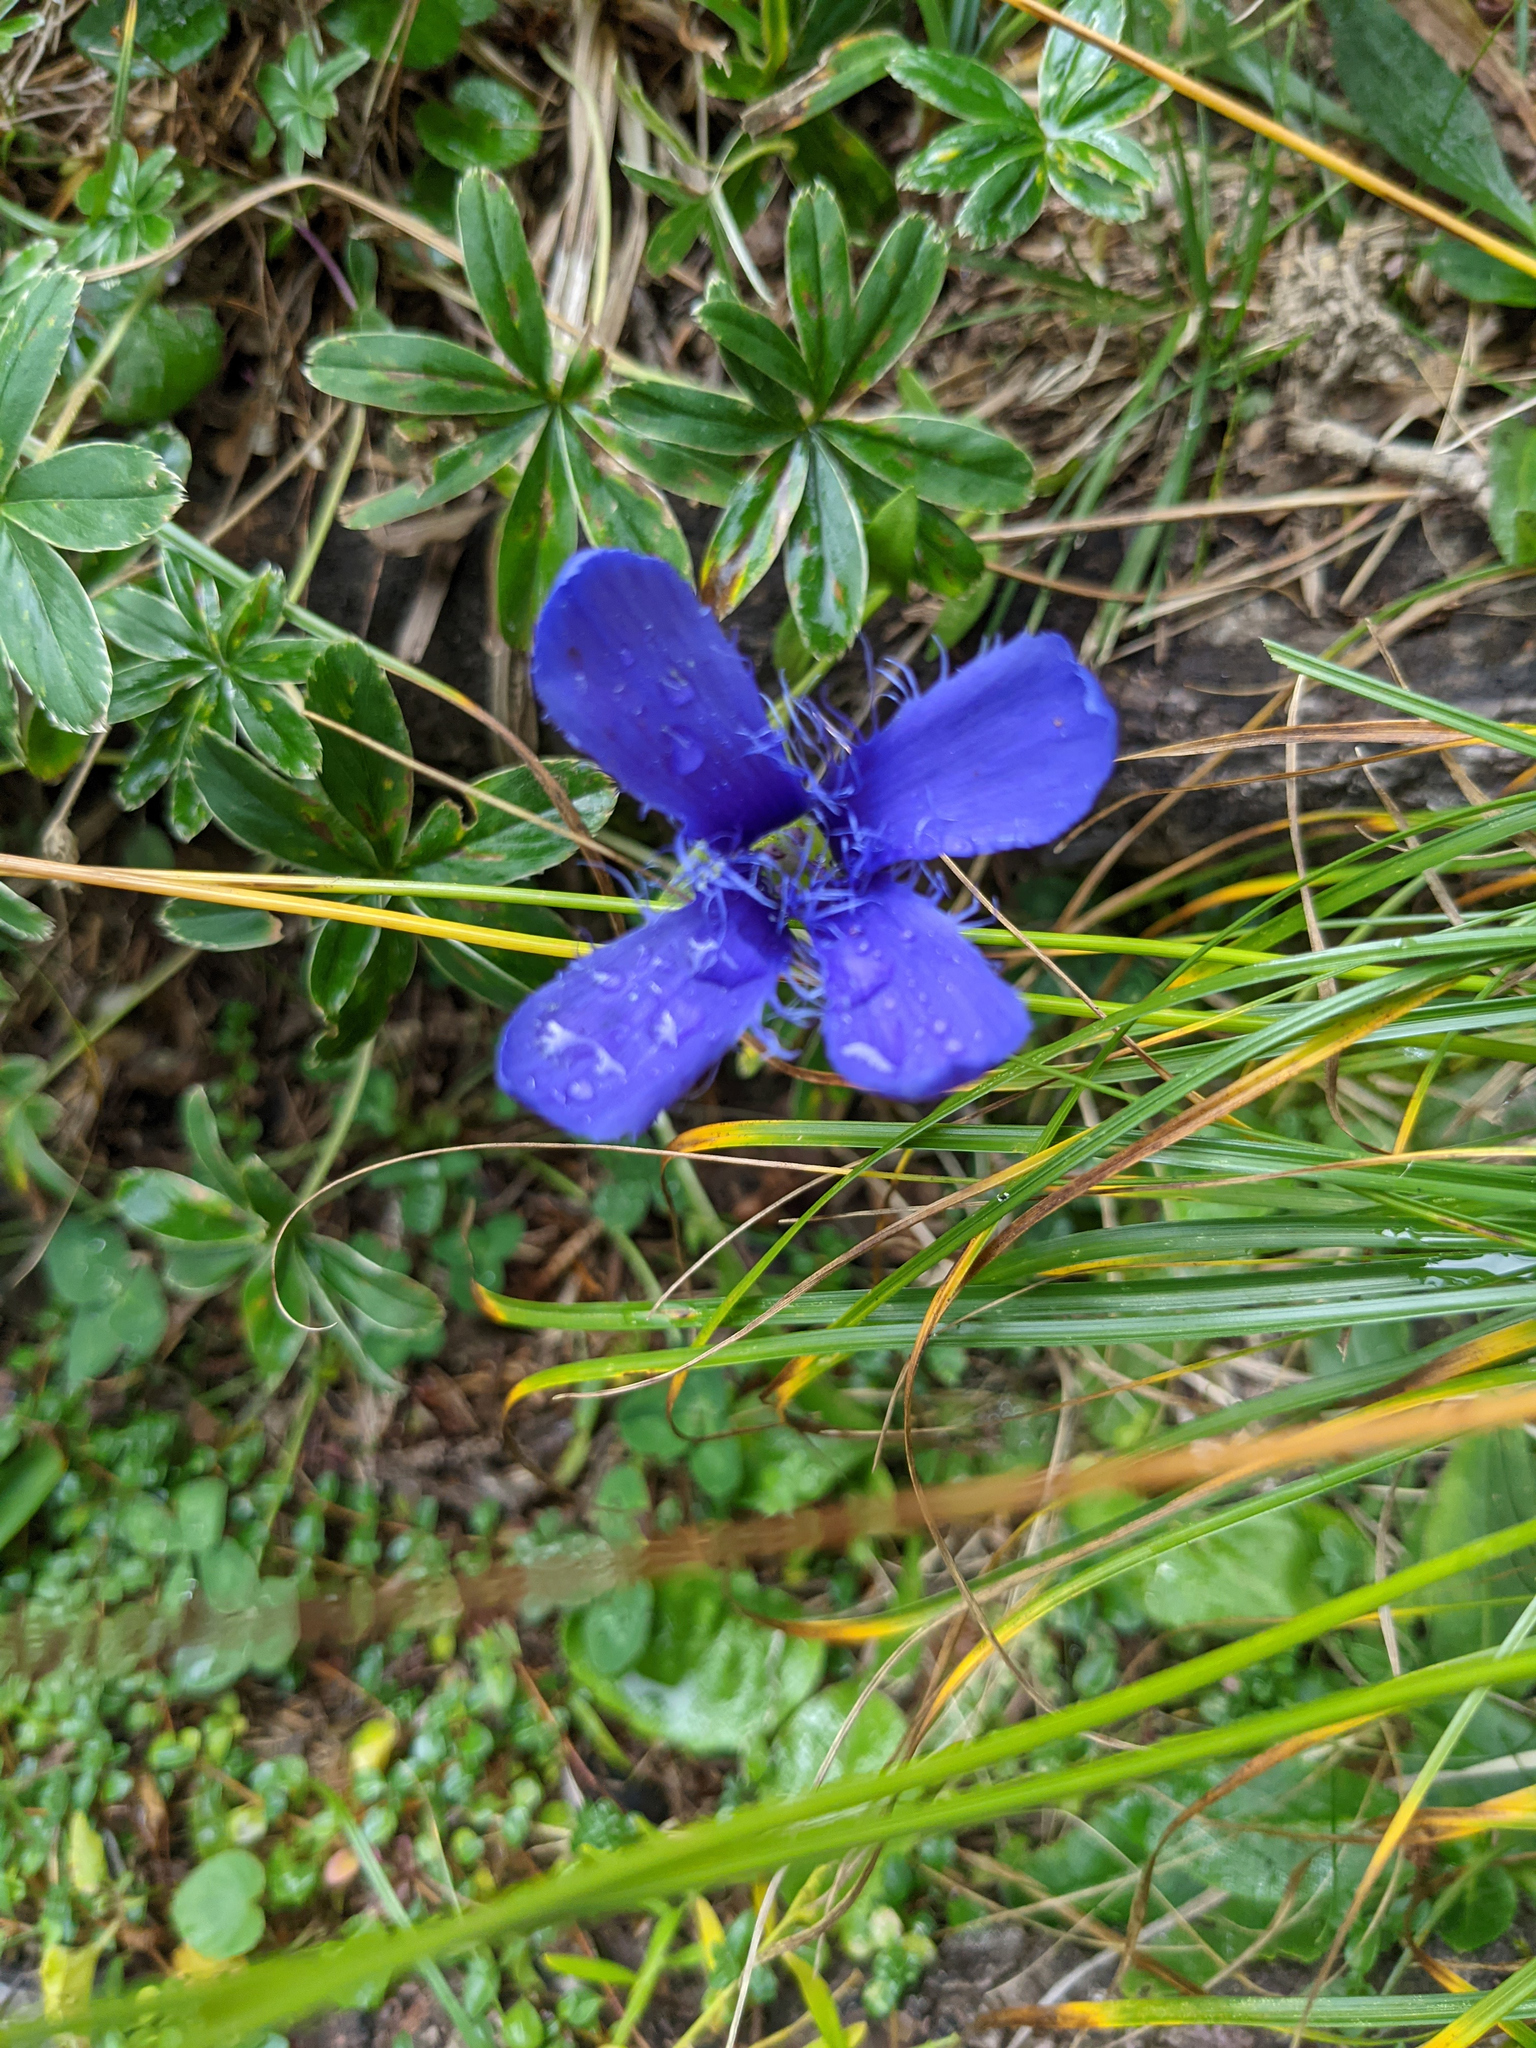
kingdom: Plantae
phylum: Tracheophyta
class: Magnoliopsida
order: Gentianales
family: Gentianaceae
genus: Gentianopsis
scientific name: Gentianopsis ciliata
